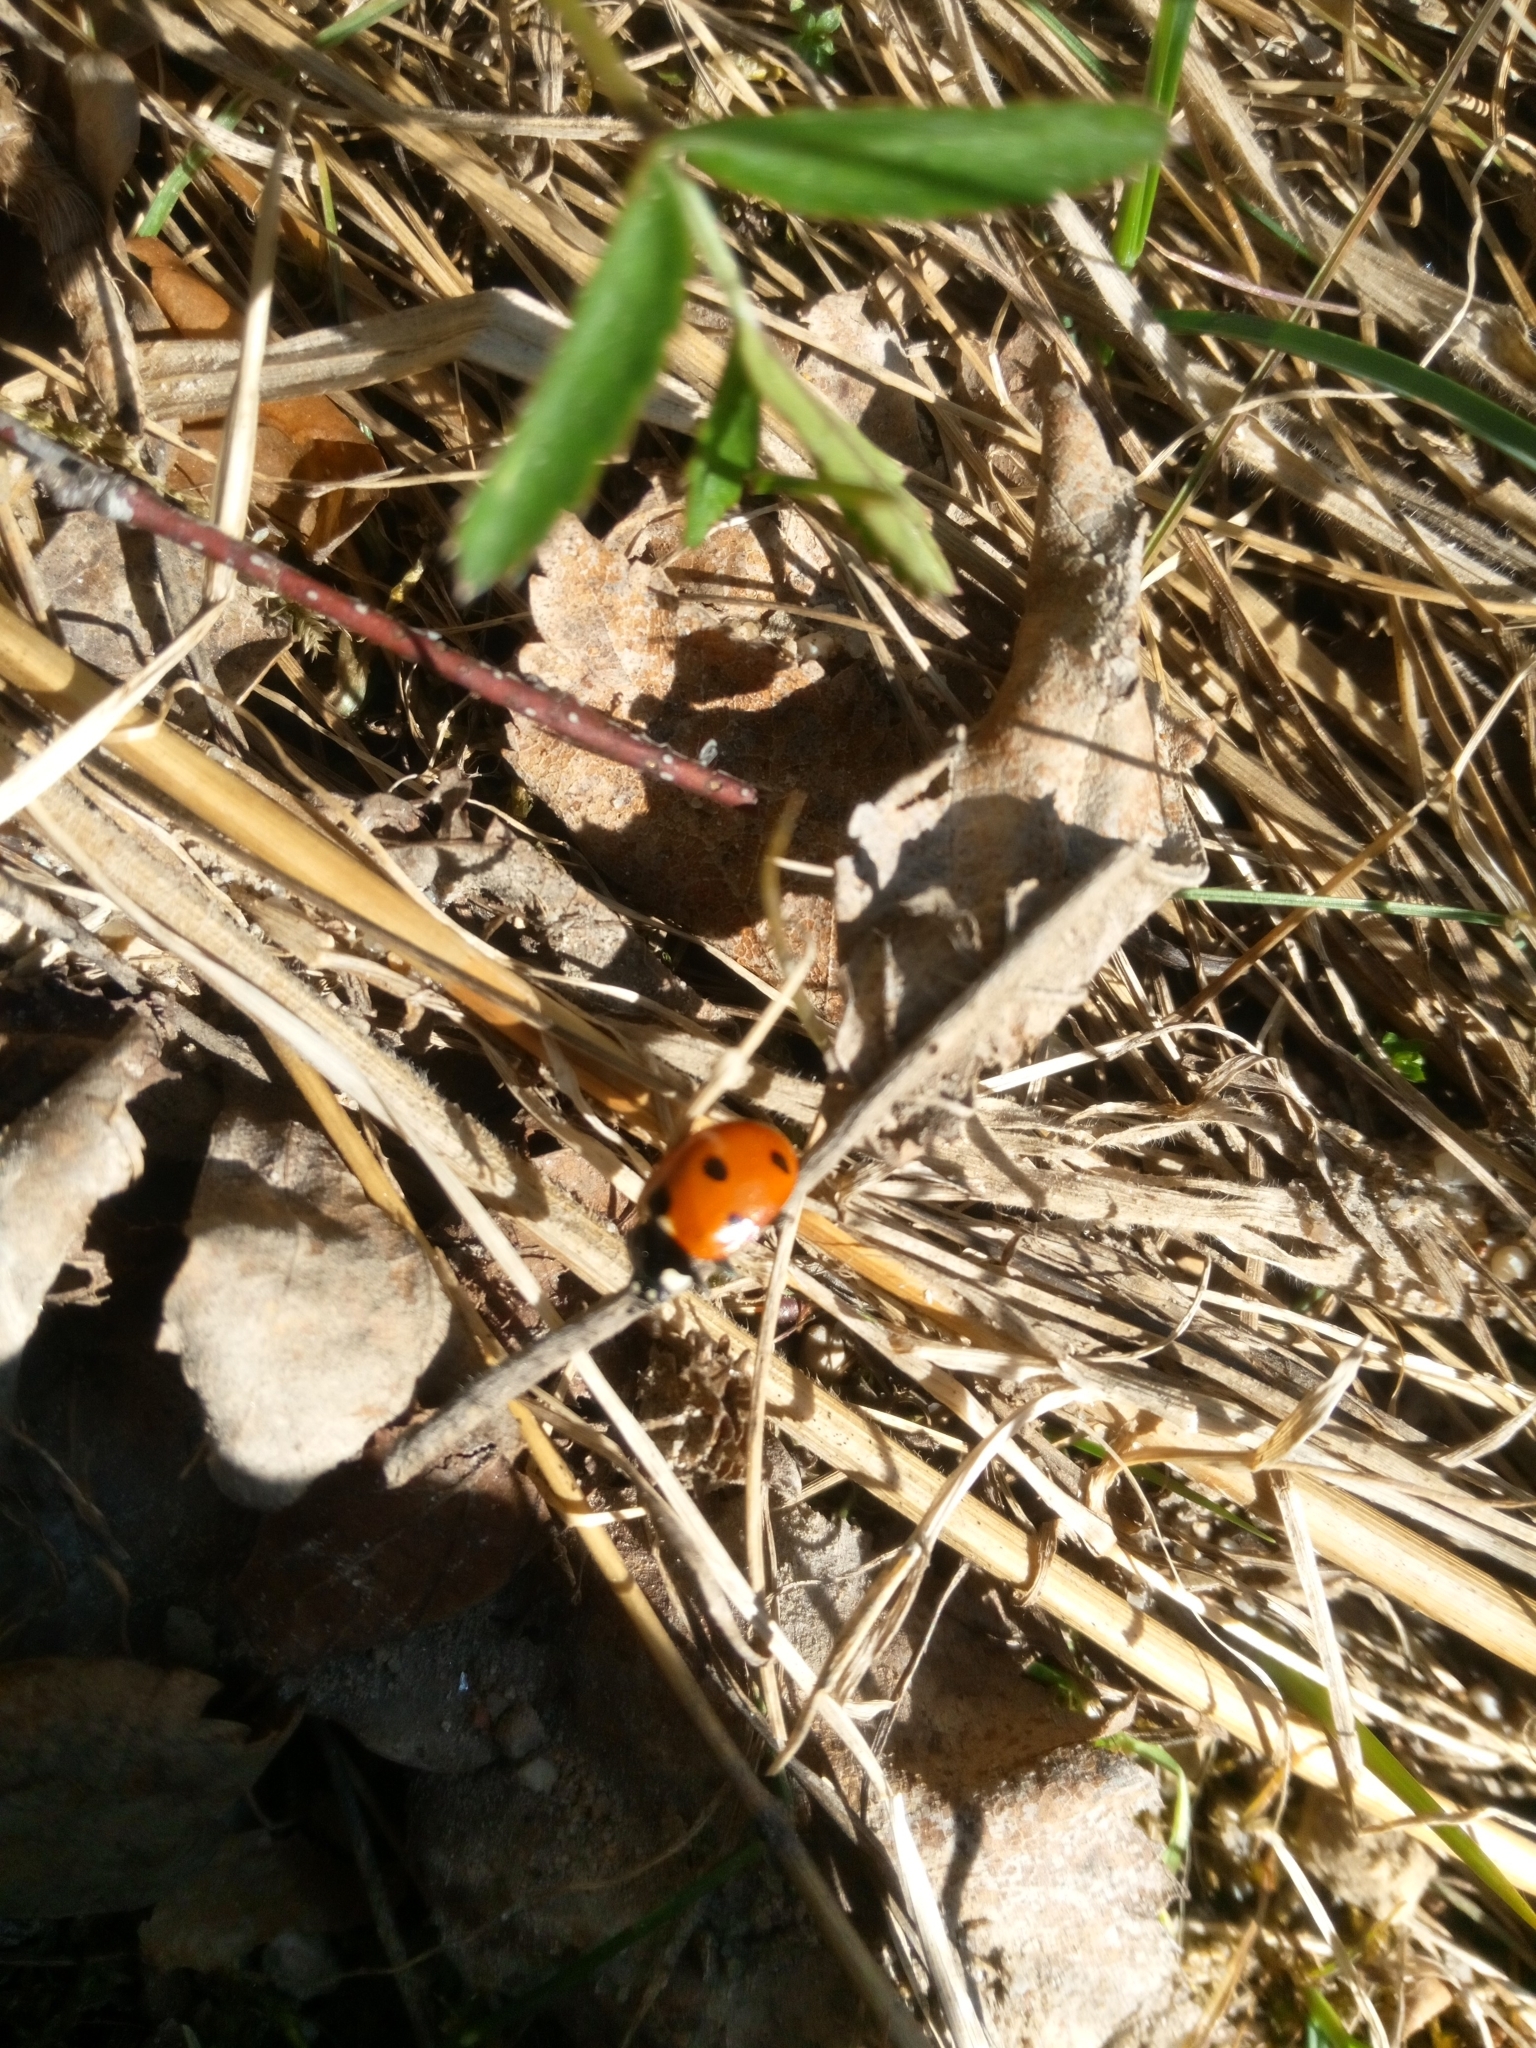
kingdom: Animalia
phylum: Arthropoda
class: Insecta
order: Coleoptera
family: Coccinellidae
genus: Coccinella
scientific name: Coccinella septempunctata
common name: Sevenspotted lady beetle
